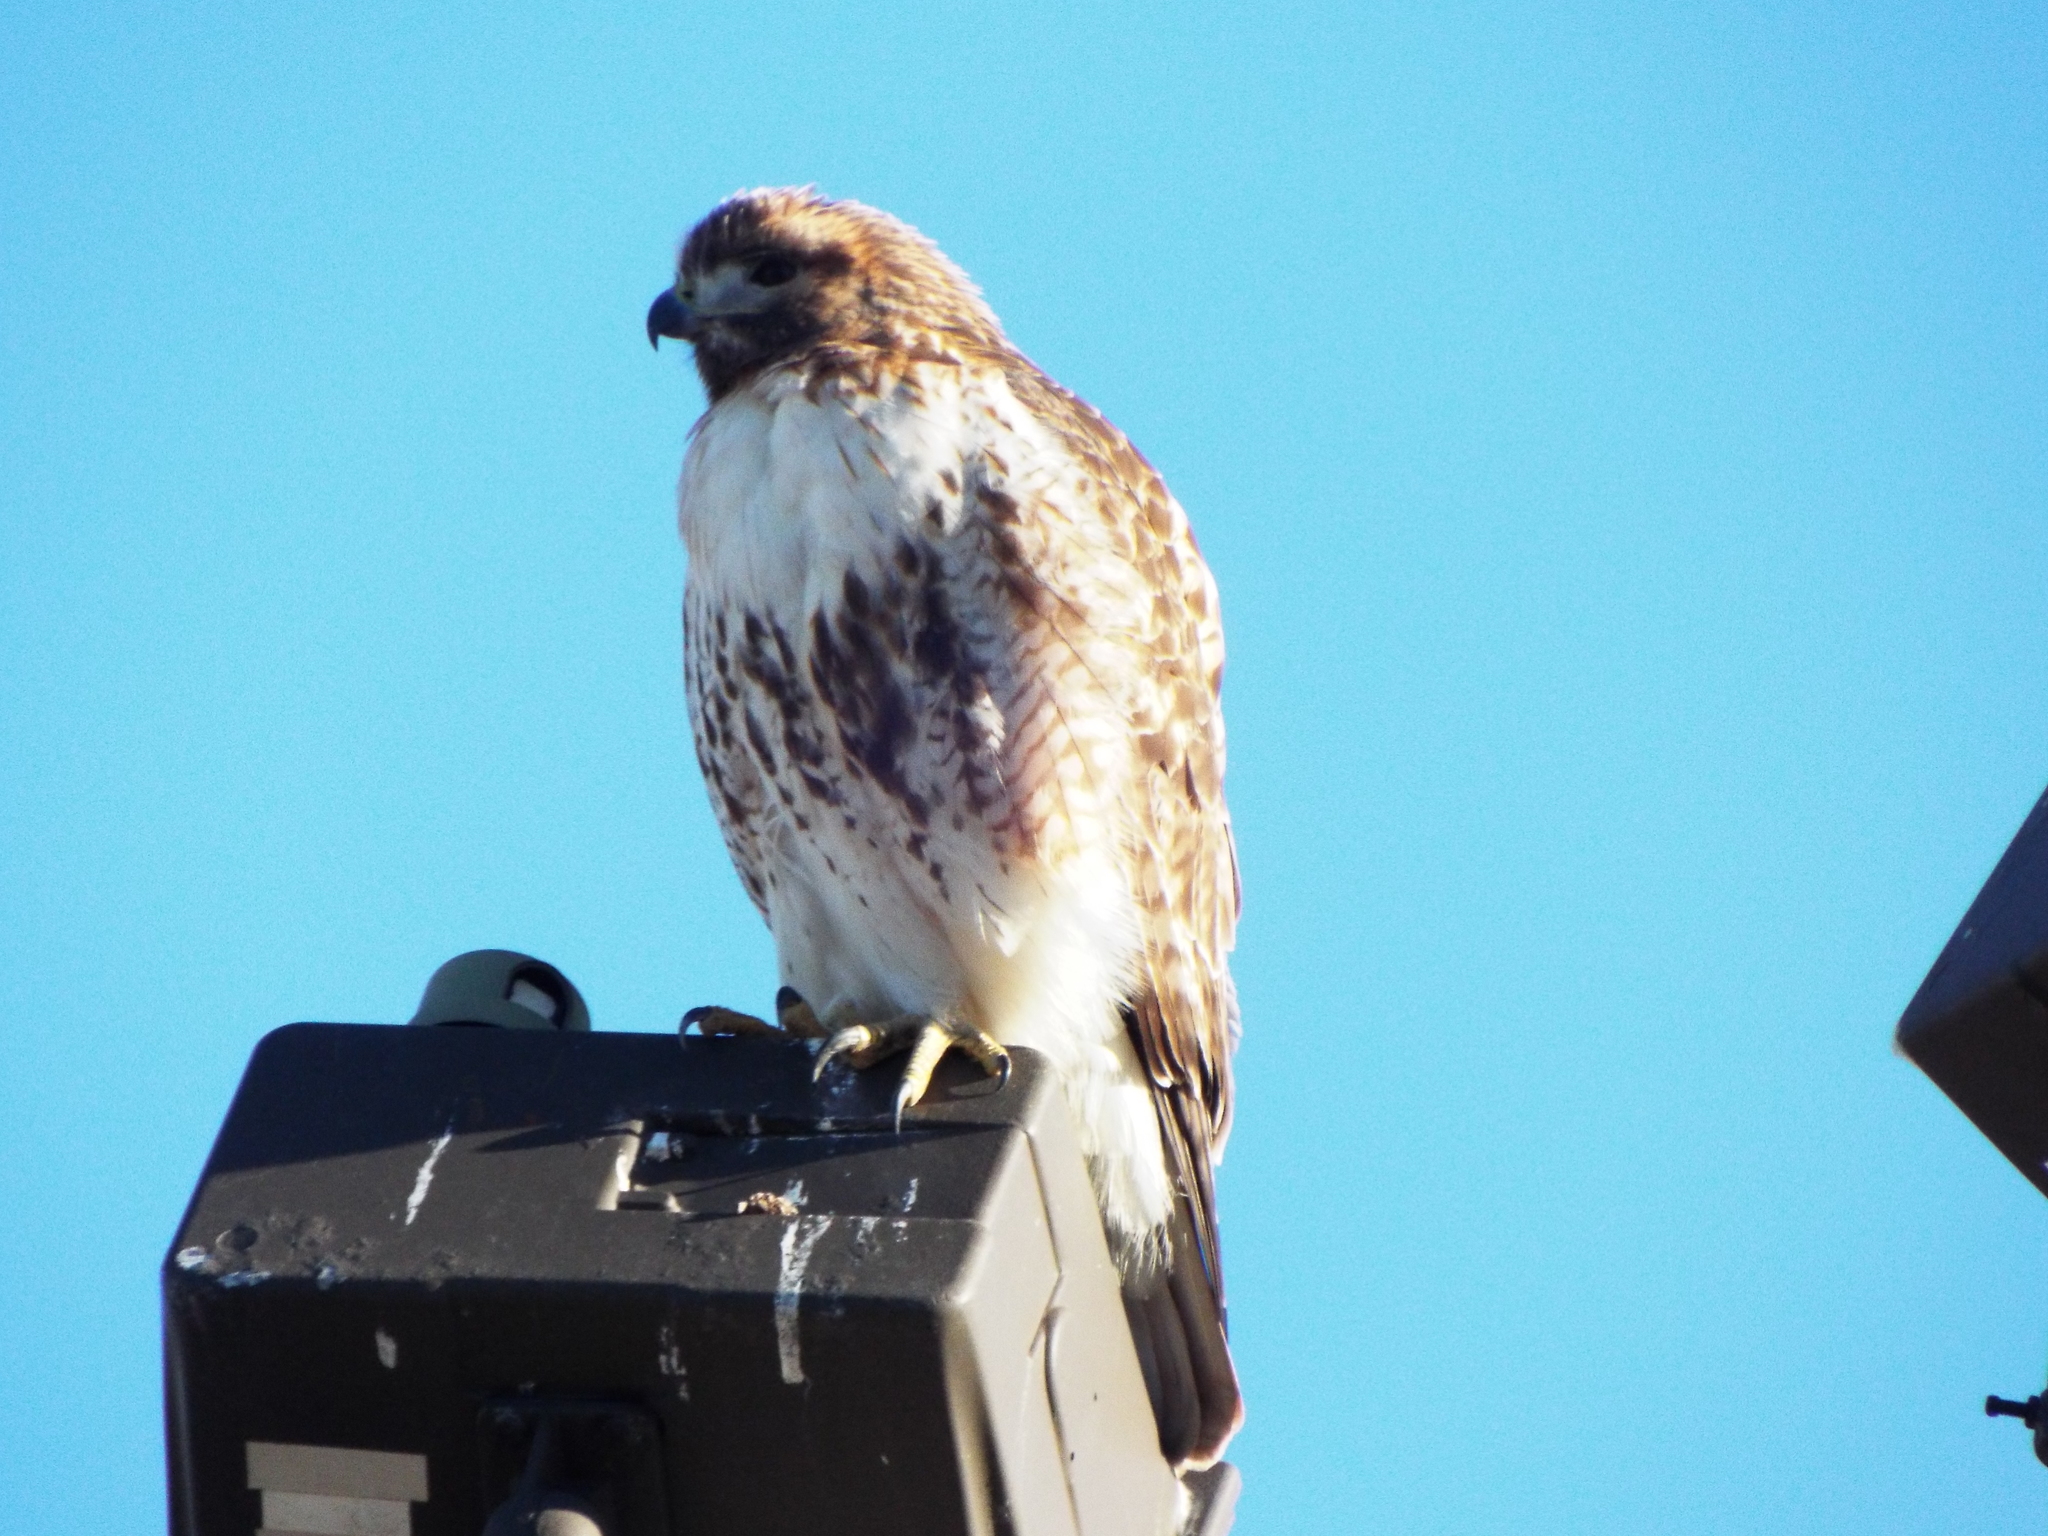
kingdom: Animalia
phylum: Chordata
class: Aves
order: Accipitriformes
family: Accipitridae
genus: Buteo
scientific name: Buteo jamaicensis
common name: Red-tailed hawk
